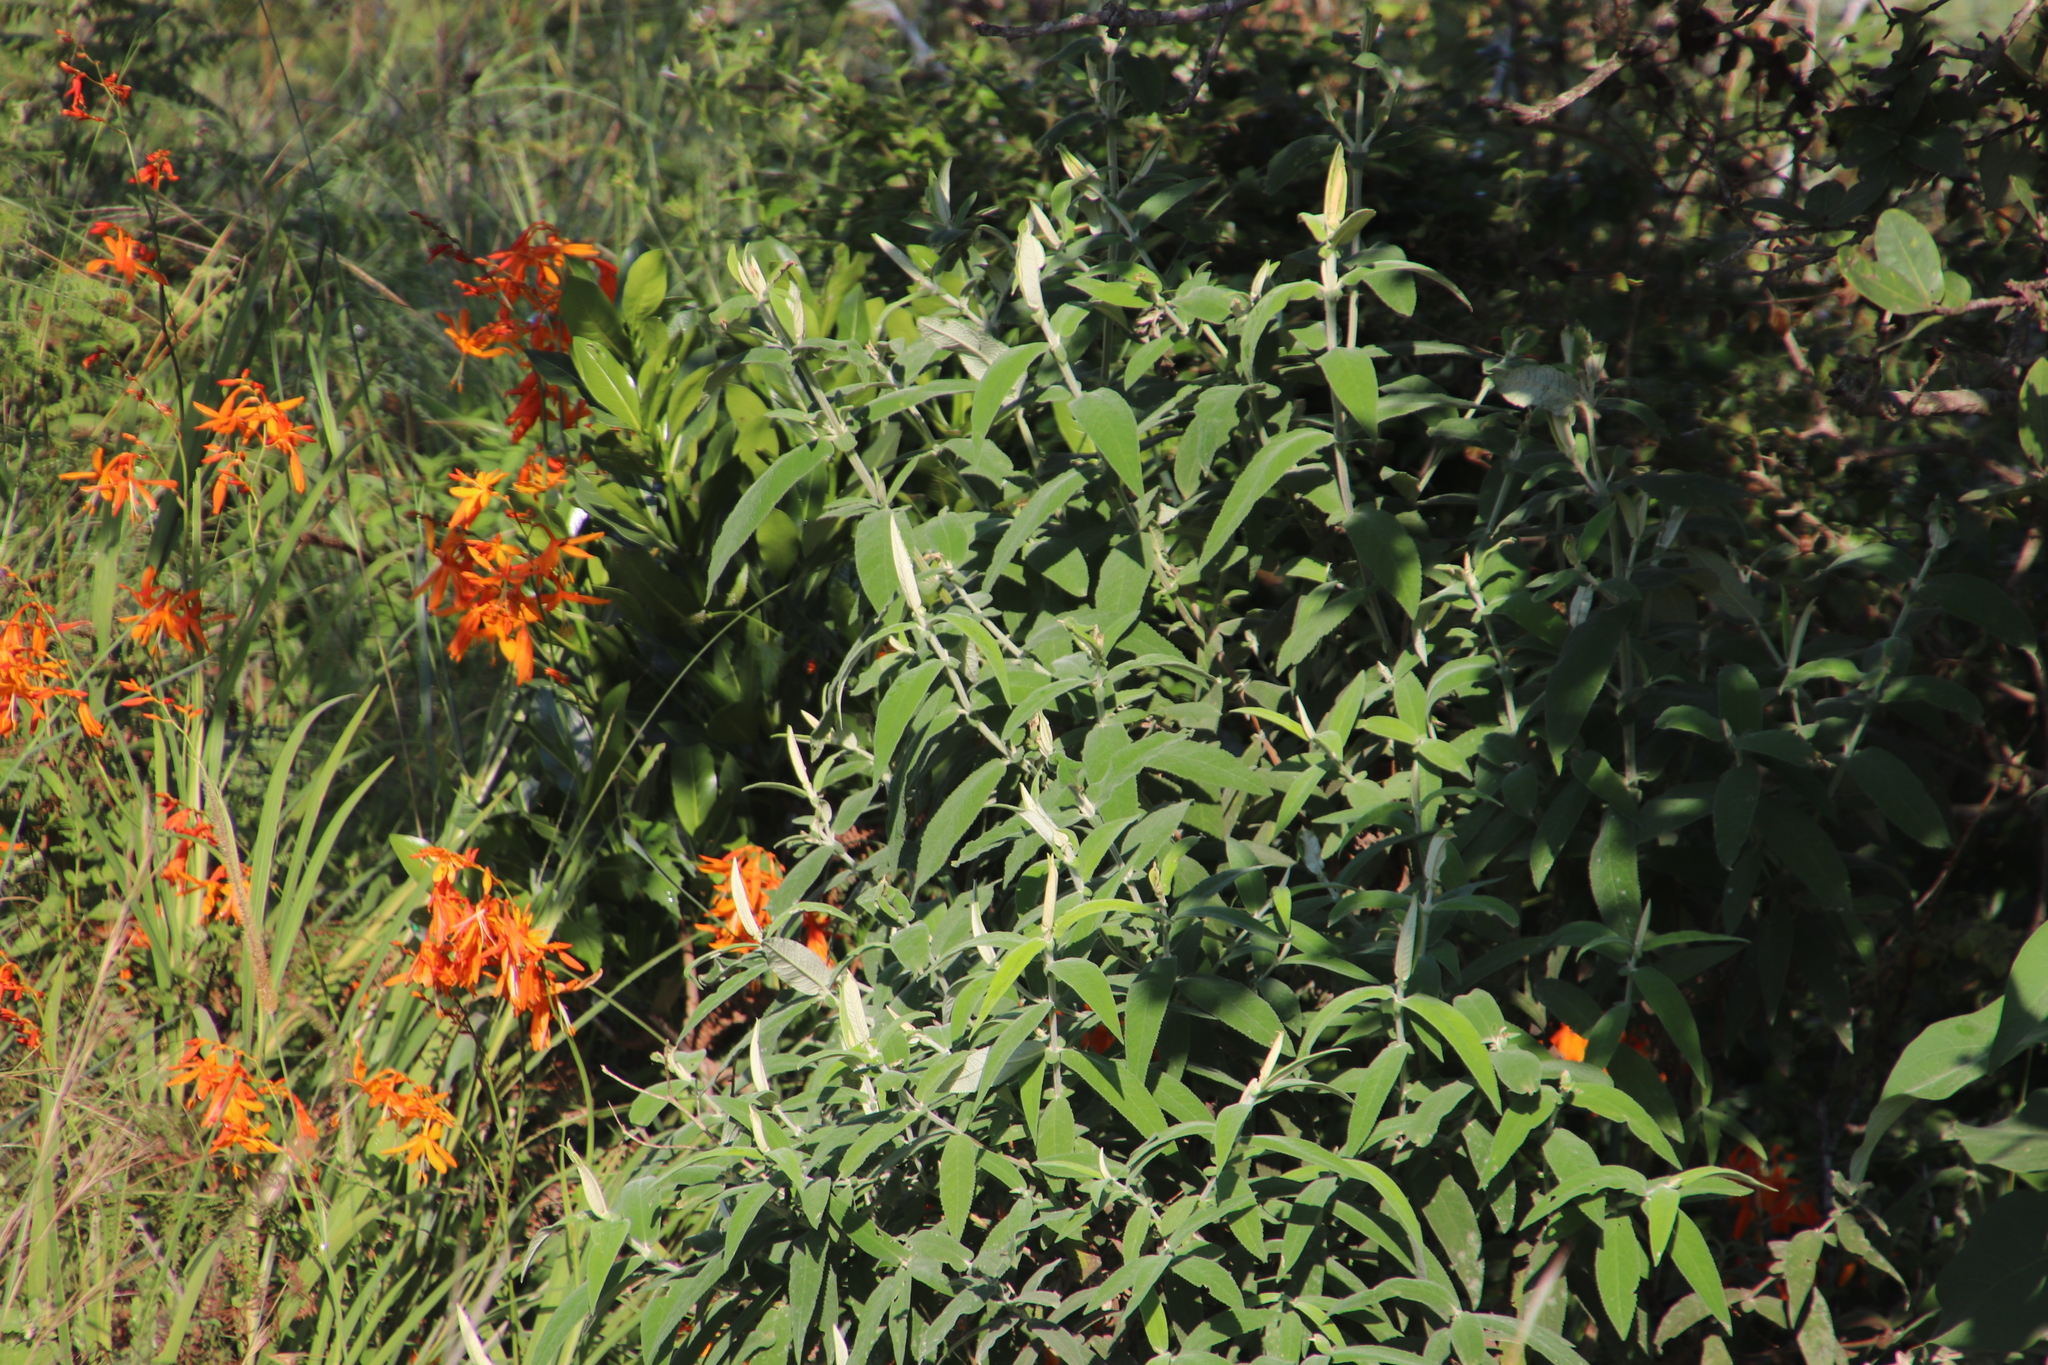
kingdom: Plantae
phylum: Tracheophyta
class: Magnoliopsida
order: Lamiales
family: Scrophulariaceae
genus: Buddleja
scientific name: Buddleja salviifolia
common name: Sagewood
